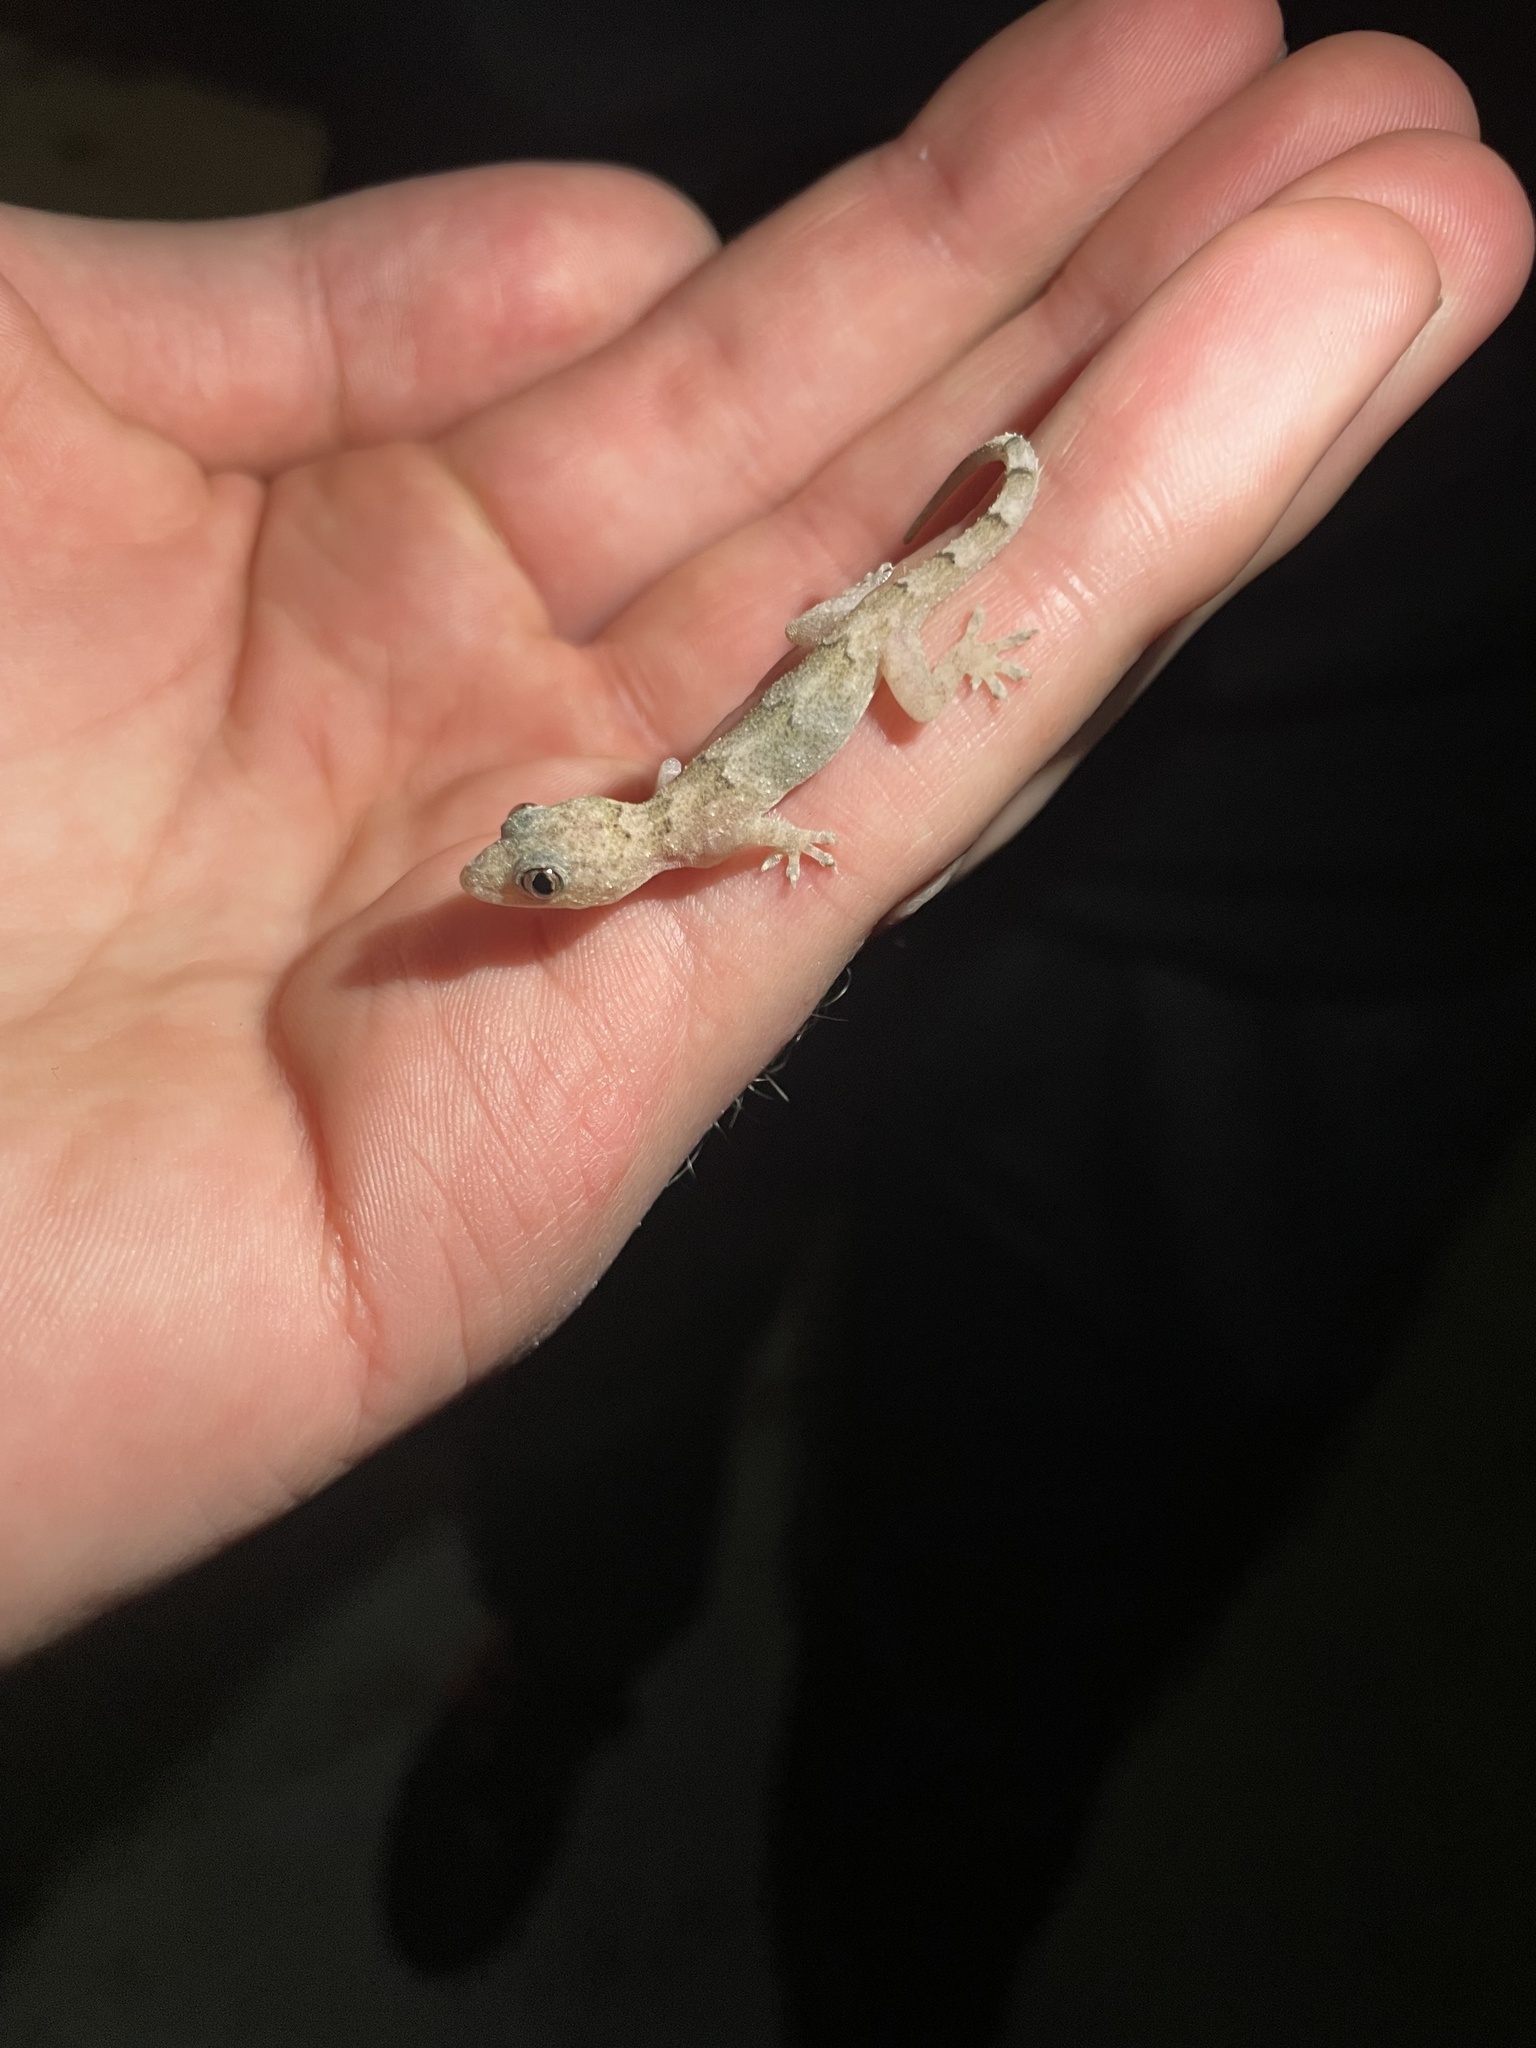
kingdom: Animalia
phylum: Chordata
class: Squamata
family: Gekkonidae
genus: Hemidactylus
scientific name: Hemidactylus mabouia
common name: House gecko
